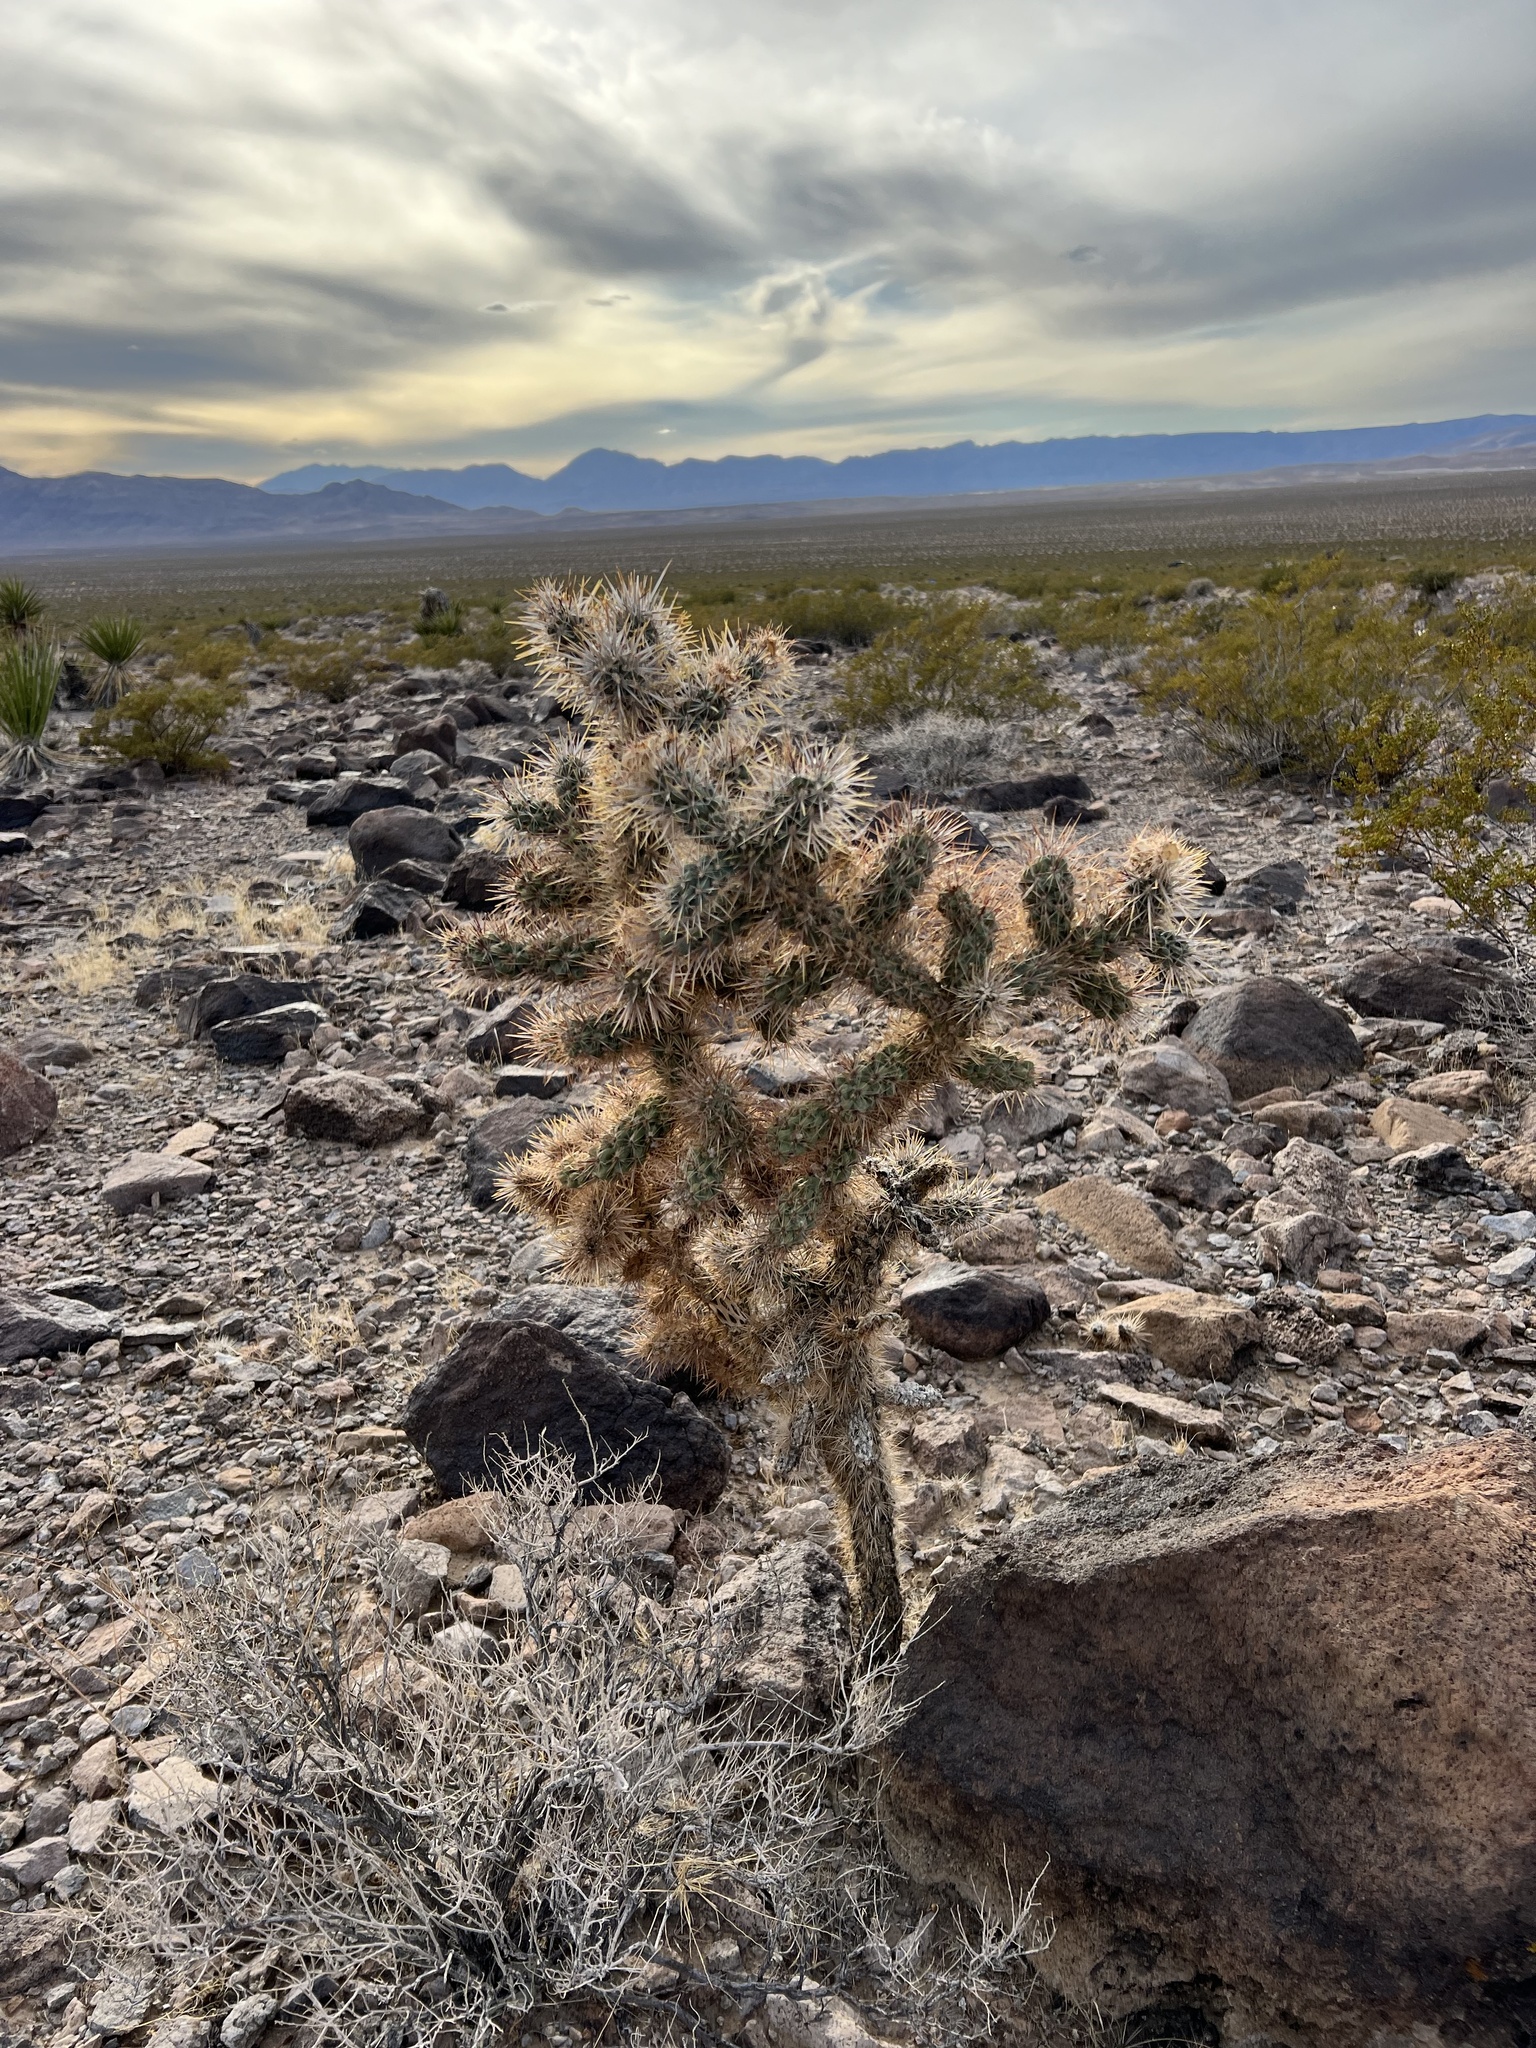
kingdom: Plantae
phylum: Tracheophyta
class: Magnoliopsida
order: Caryophyllales
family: Cactaceae
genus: Cylindropuntia
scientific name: Cylindropuntia echinocarpa
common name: Ground cholla
